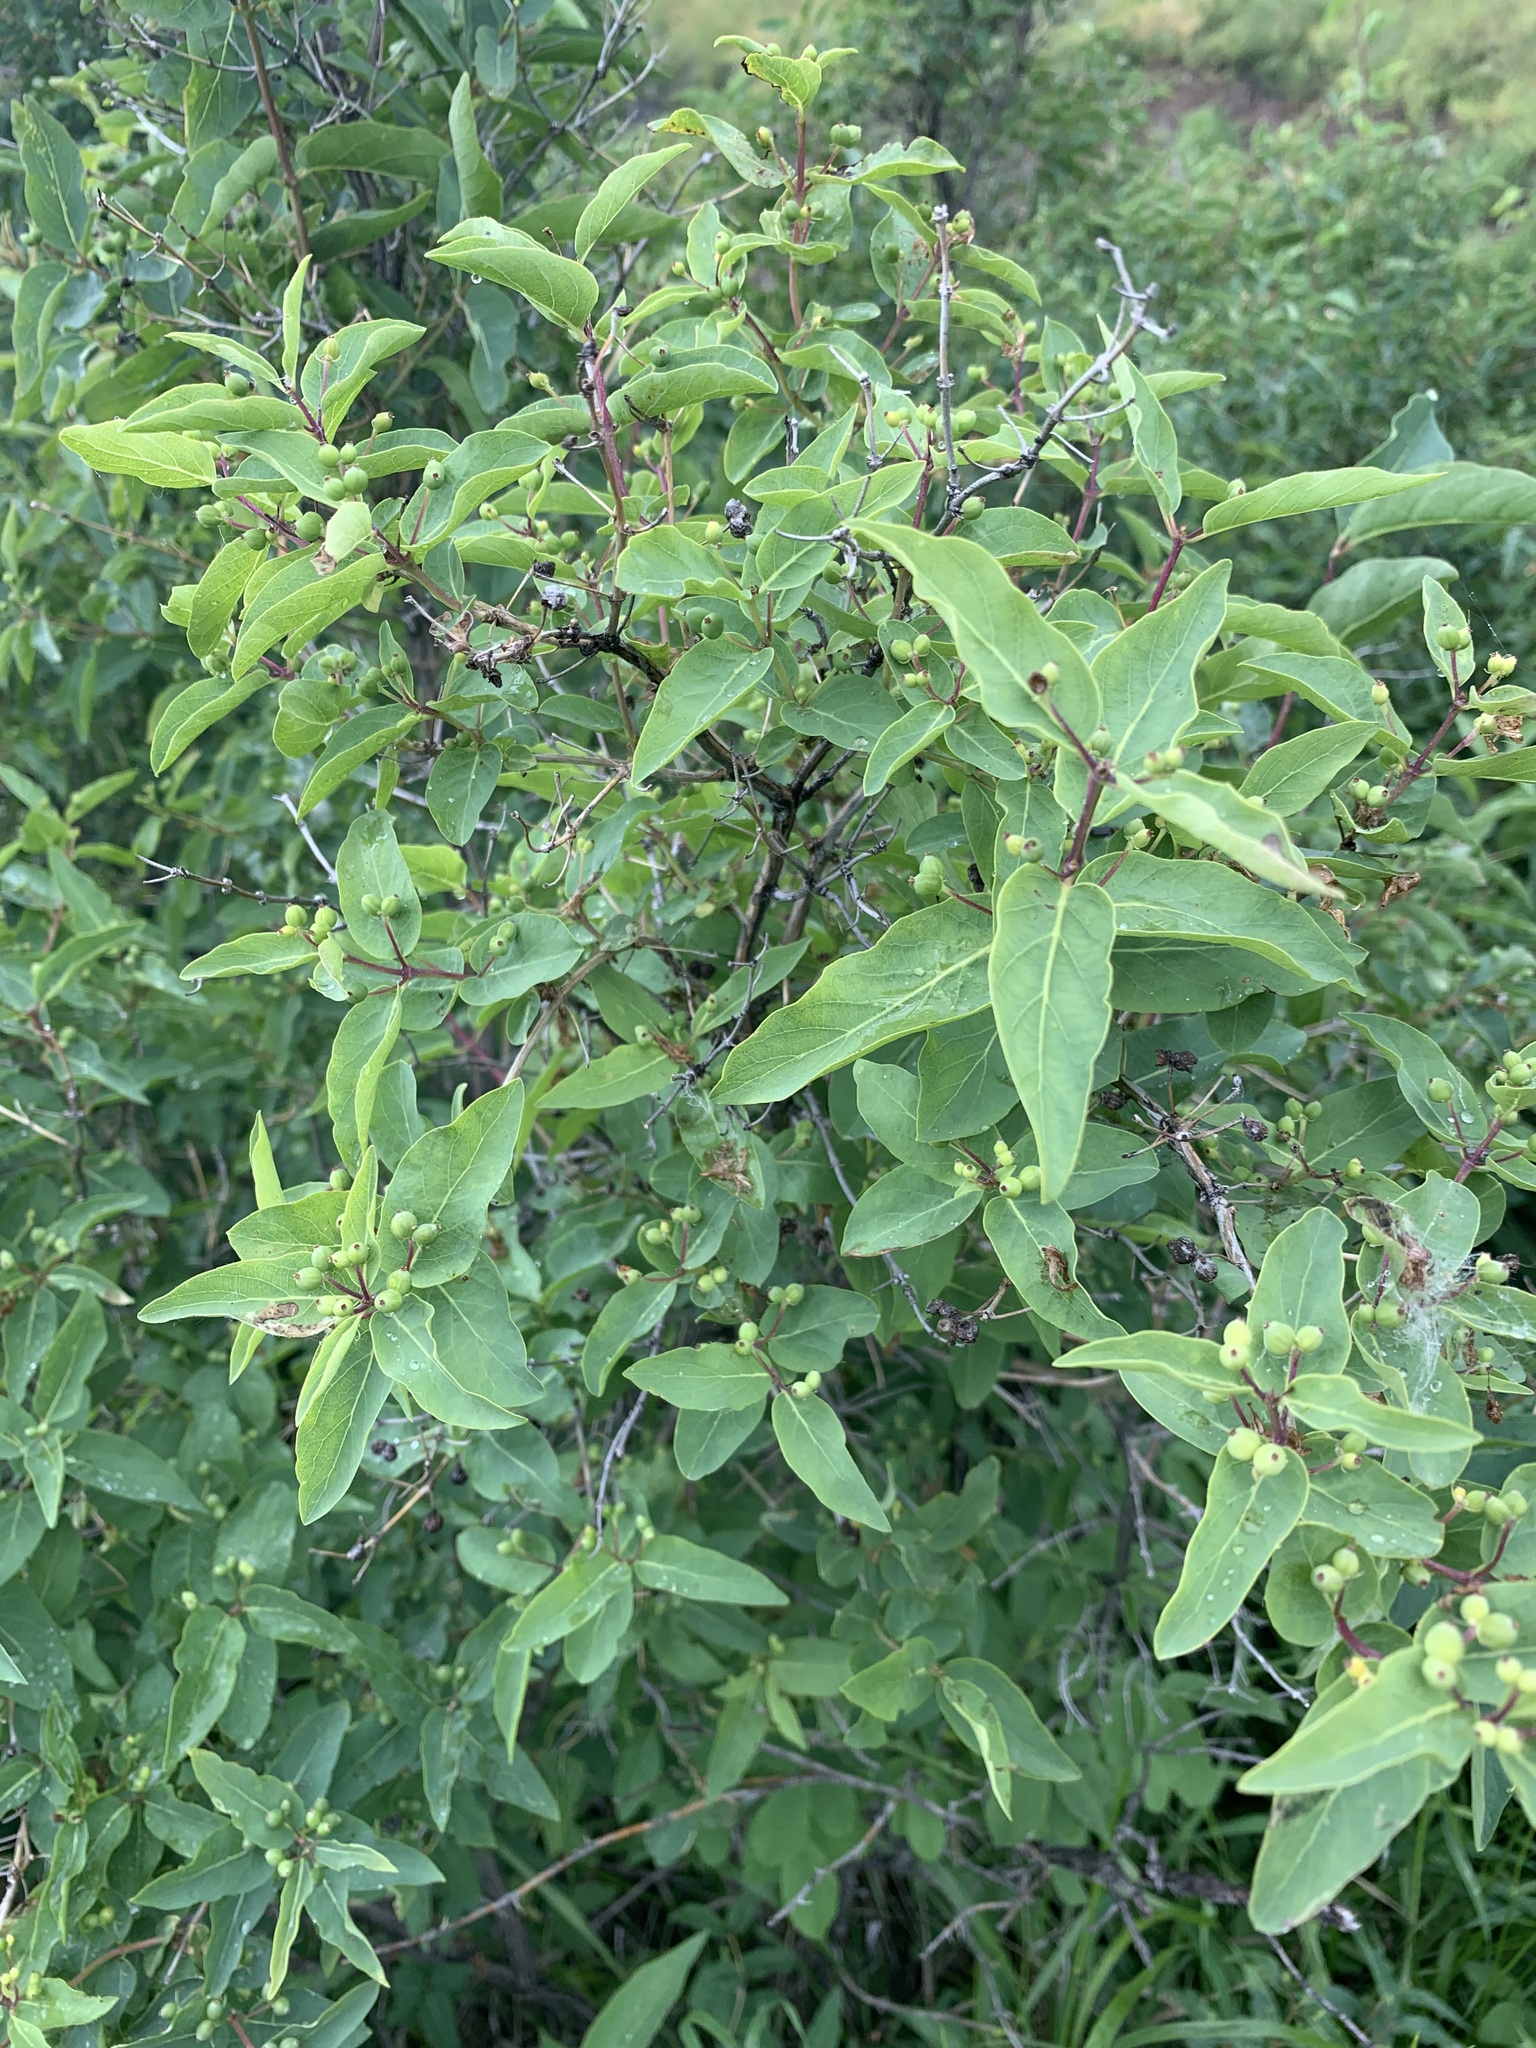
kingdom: Plantae
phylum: Tracheophyta
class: Magnoliopsida
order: Dipsacales
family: Caprifoliaceae
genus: Lonicera
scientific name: Lonicera tatarica
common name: Tatarian honeysuckle
